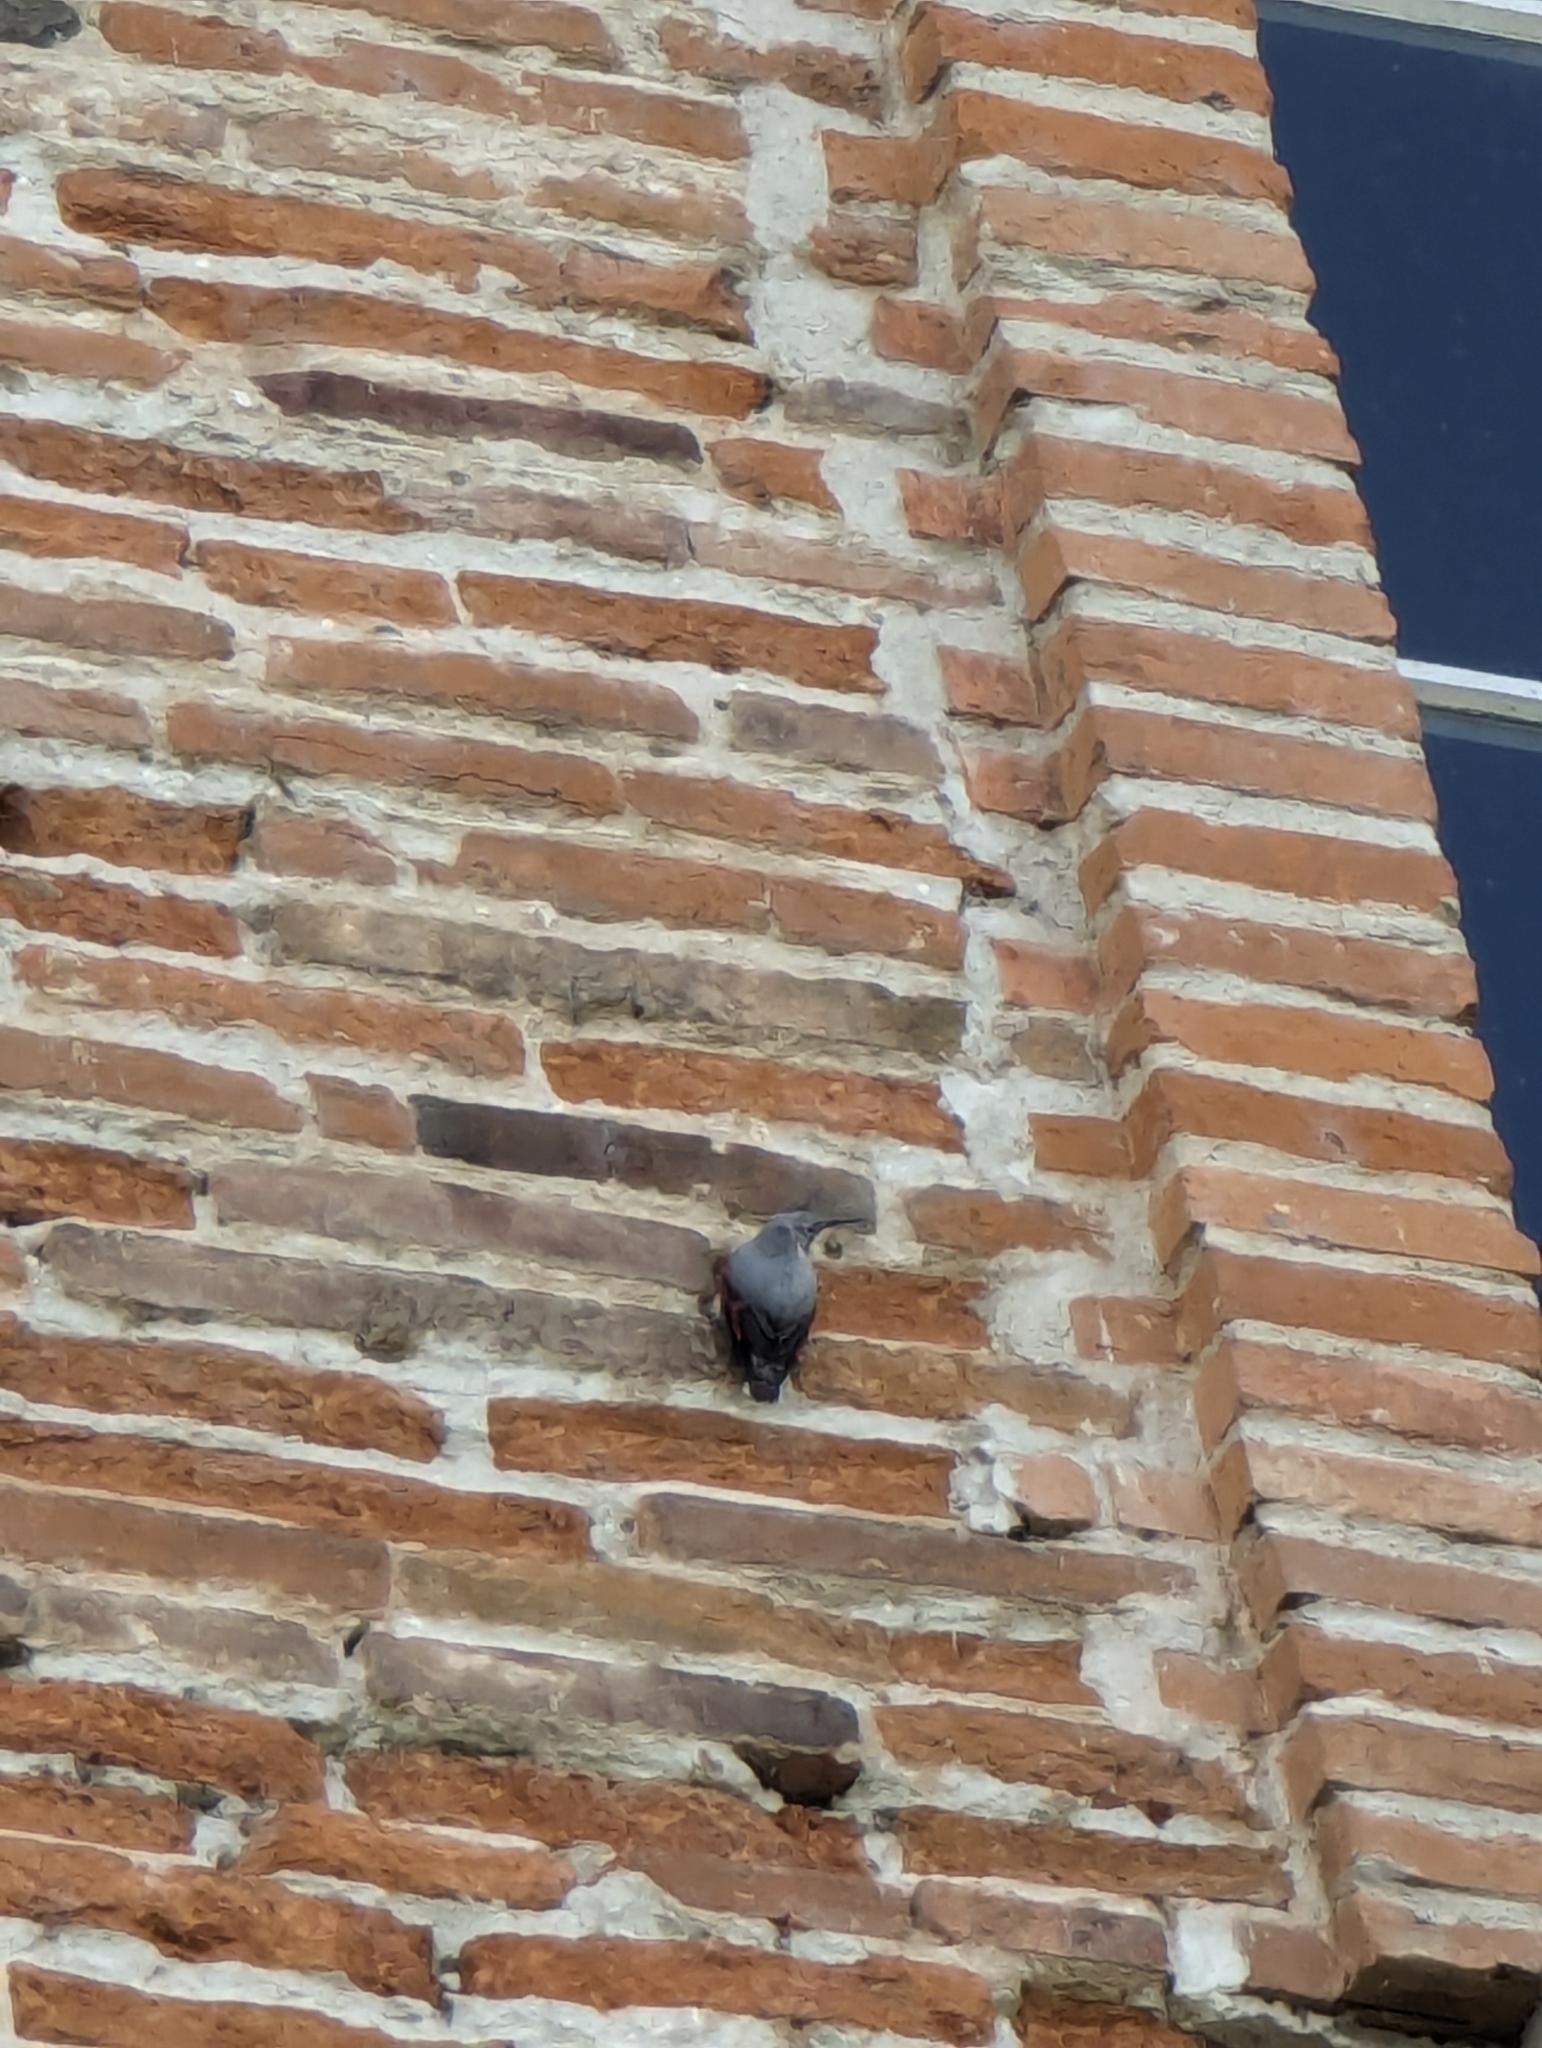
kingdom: Animalia
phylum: Chordata
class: Aves
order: Passeriformes
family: Tichodromidae
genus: Tichodroma
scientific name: Tichodroma muraria
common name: Wallcreeper
